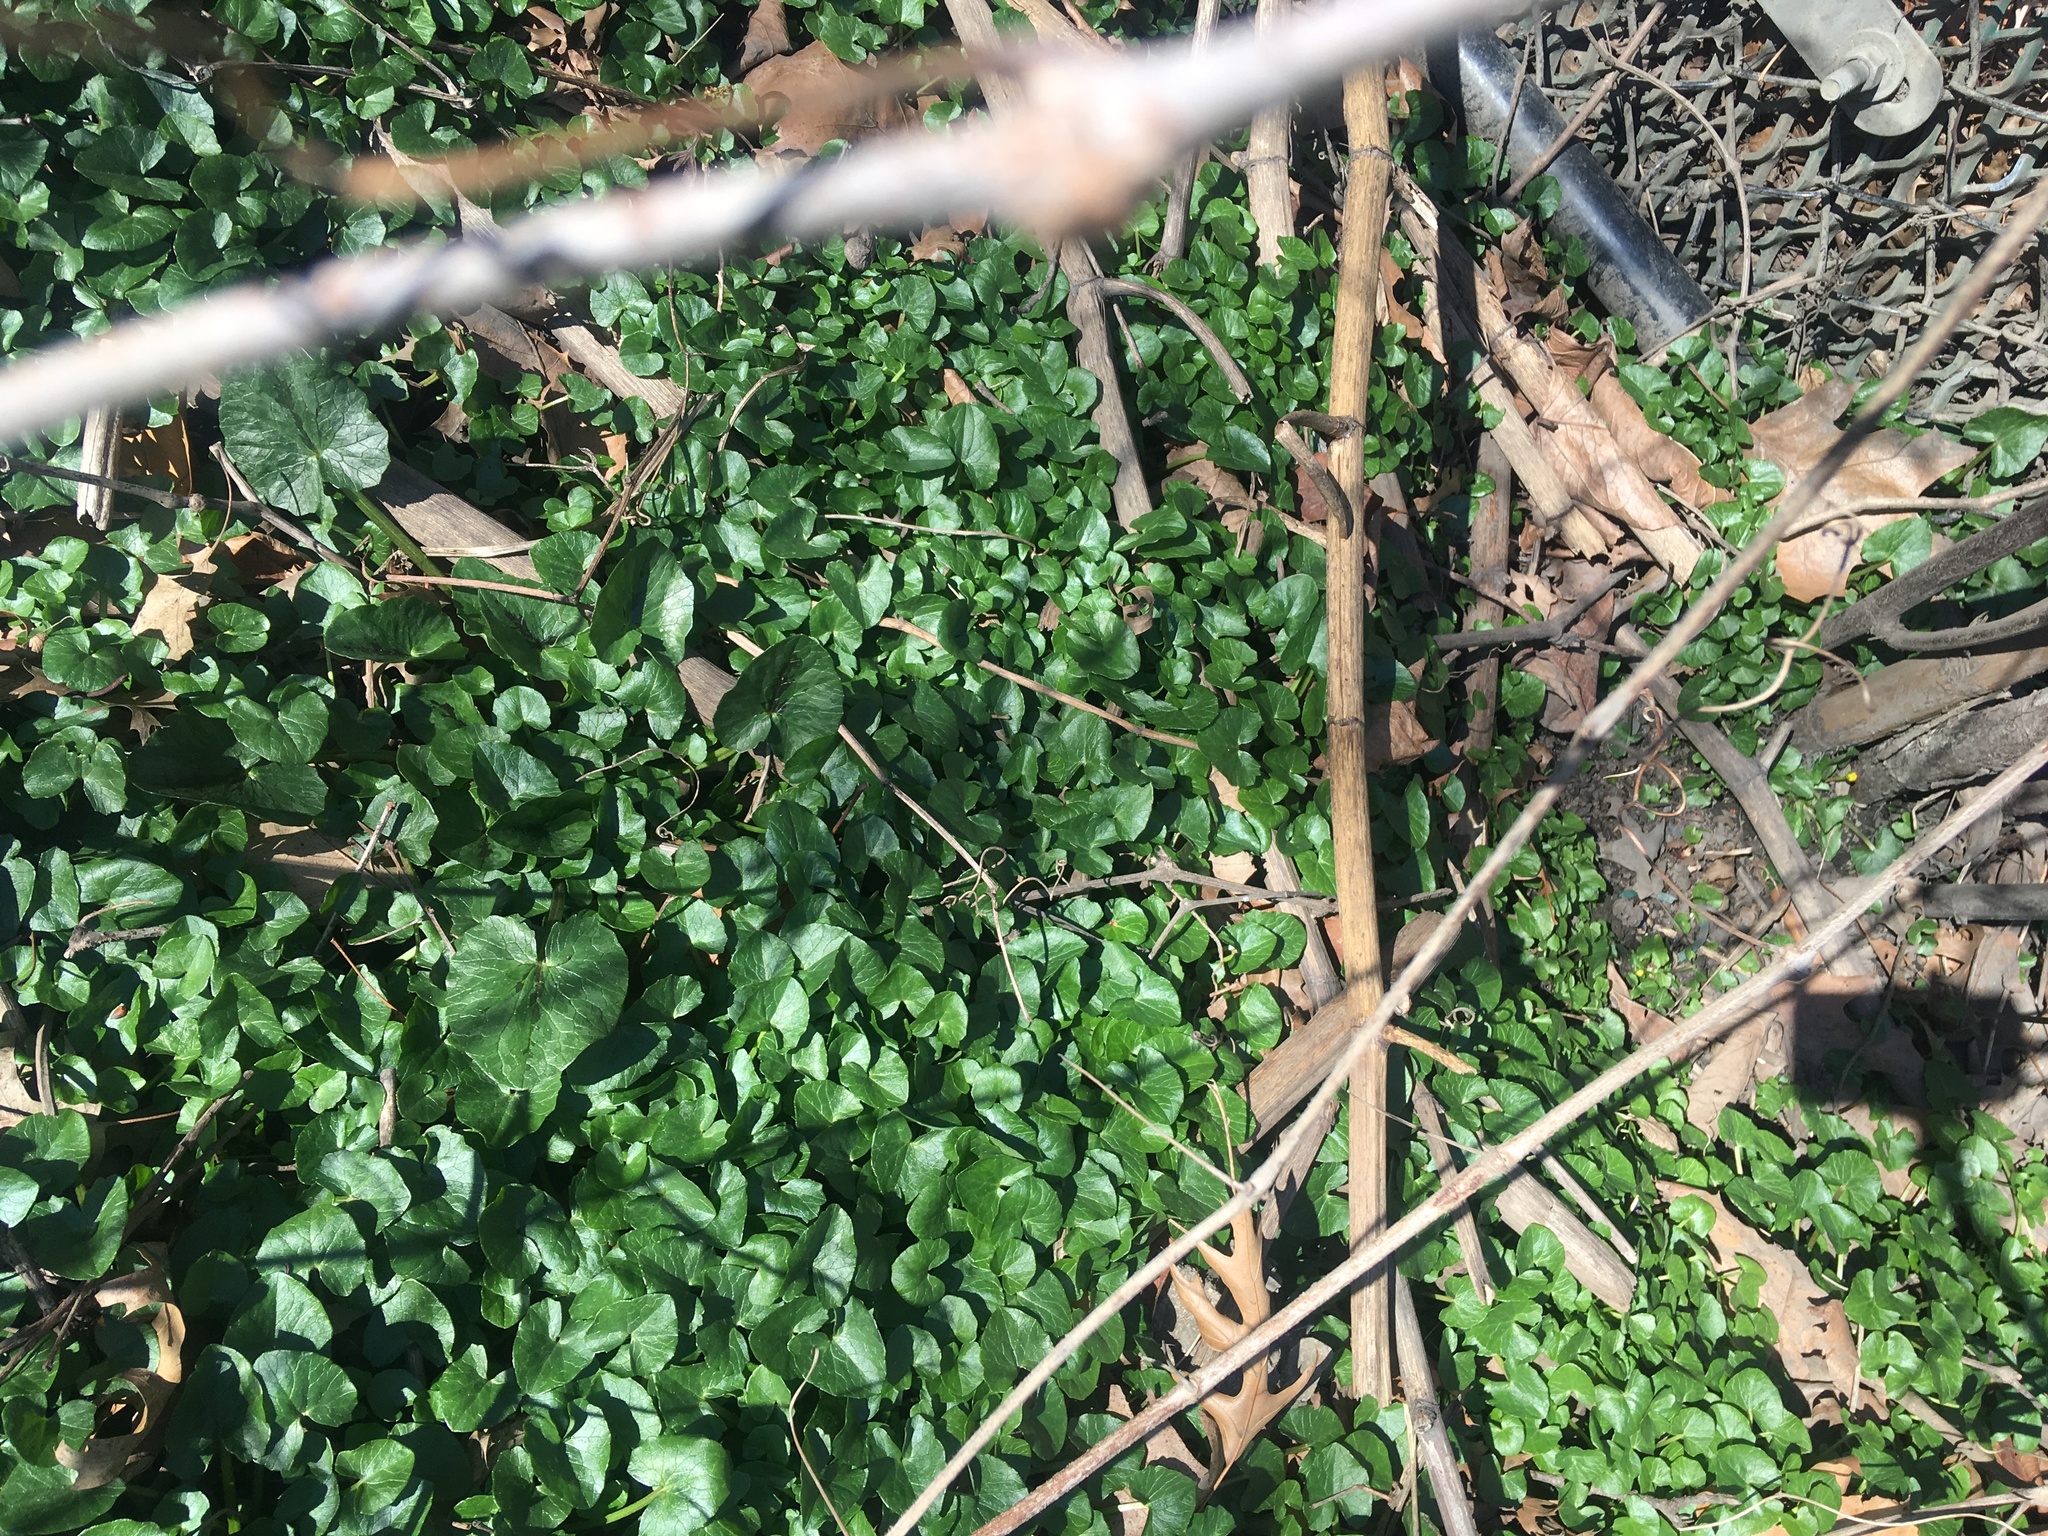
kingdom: Plantae
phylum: Tracheophyta
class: Magnoliopsida
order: Ranunculales
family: Ranunculaceae
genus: Ficaria
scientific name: Ficaria verna
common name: Lesser celandine
